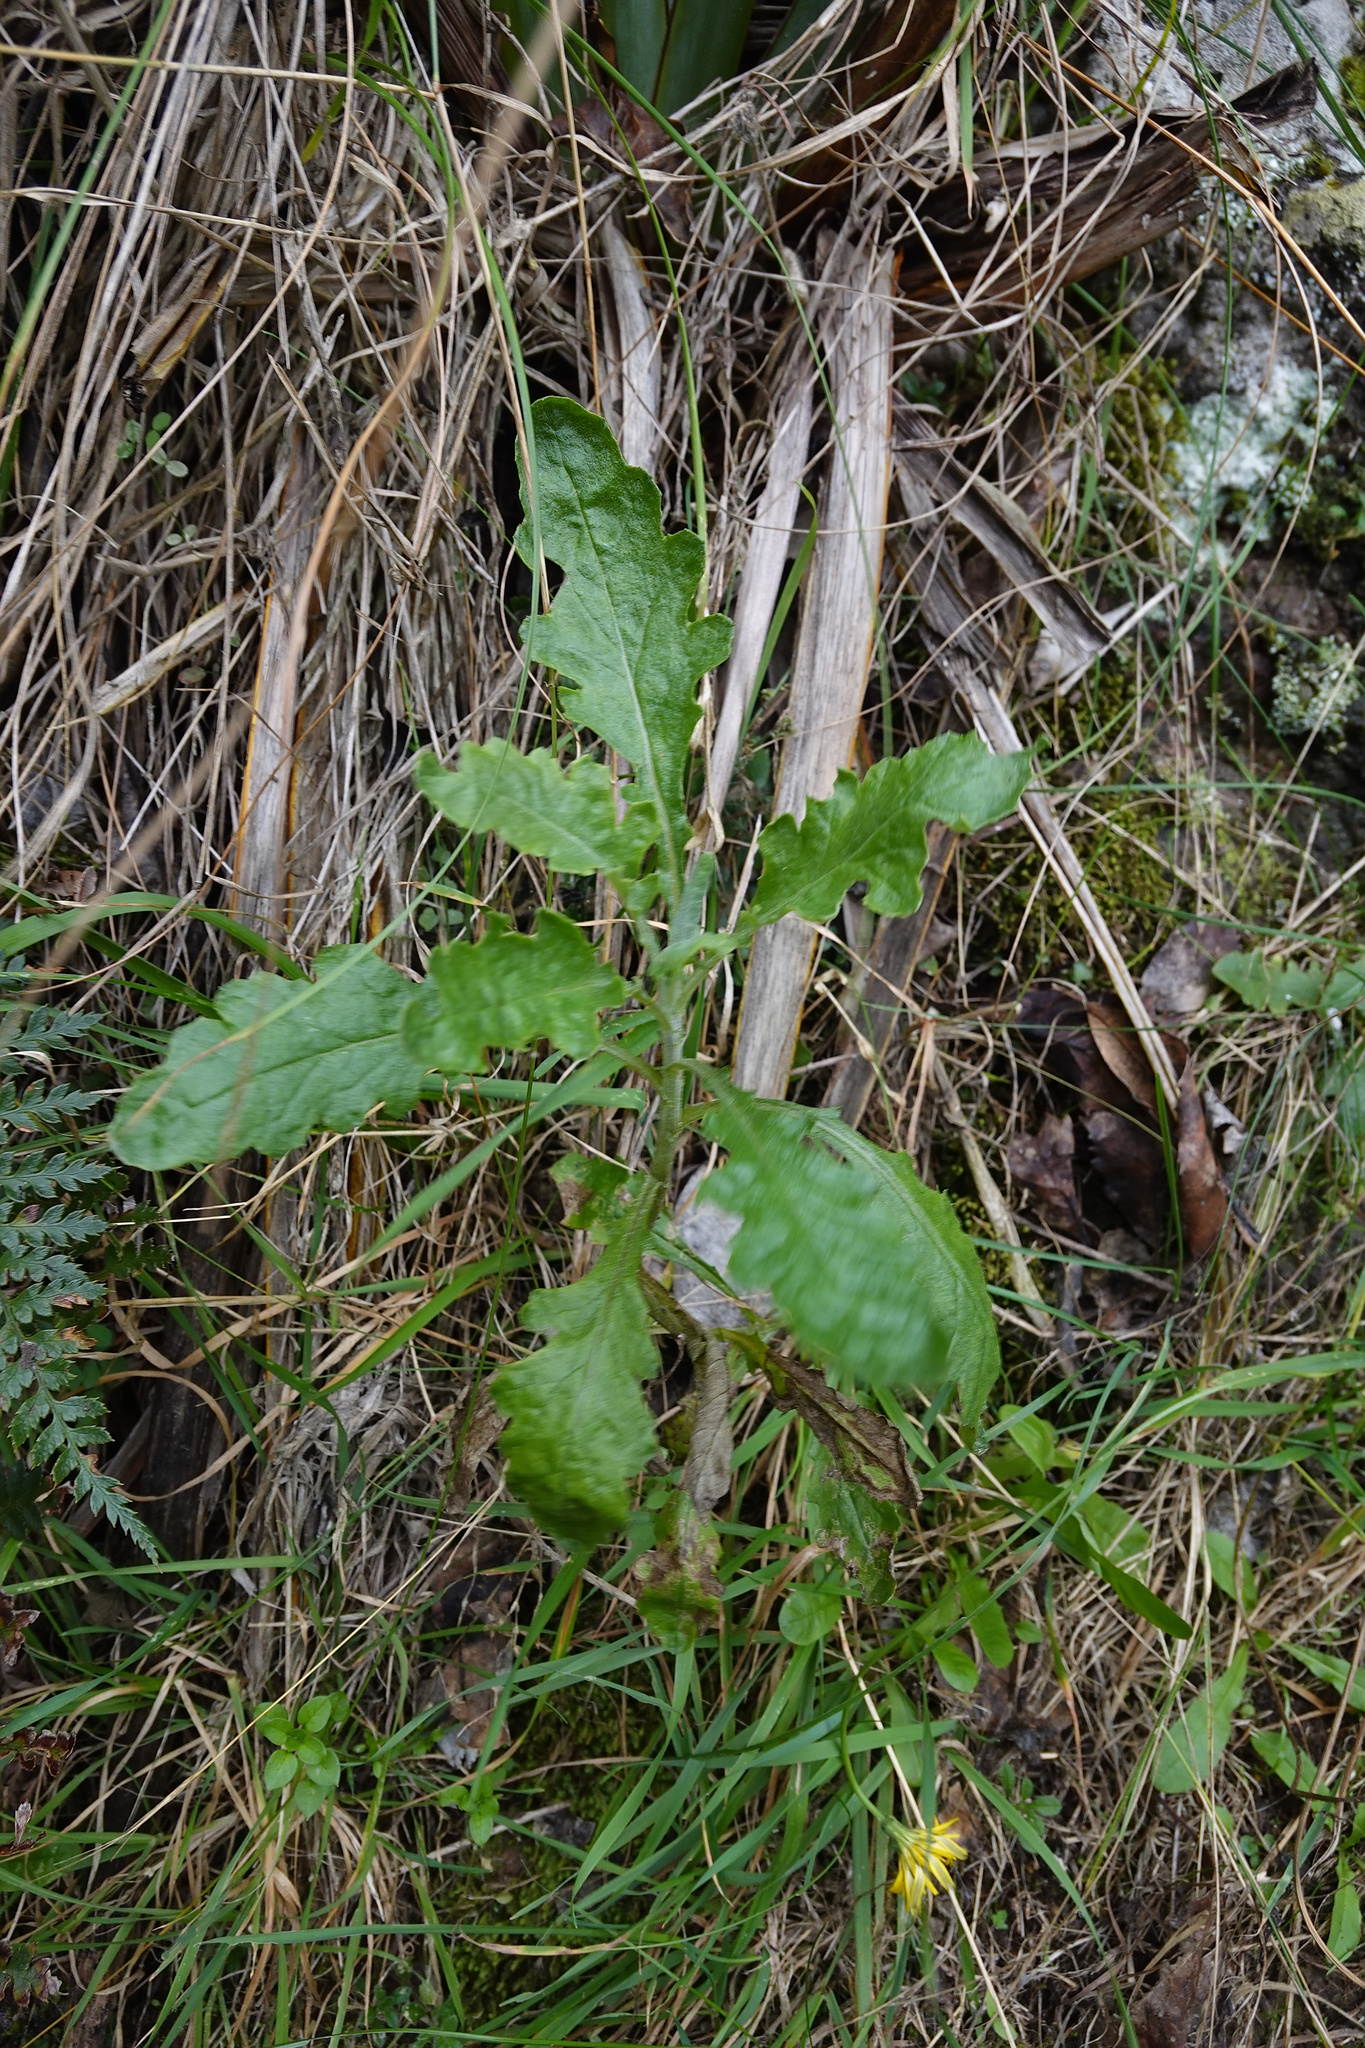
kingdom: Plantae
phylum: Tracheophyta
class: Magnoliopsida
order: Asterales
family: Asteraceae
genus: Senecio
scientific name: Senecio glomeratus
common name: Cutleaf burnweed
